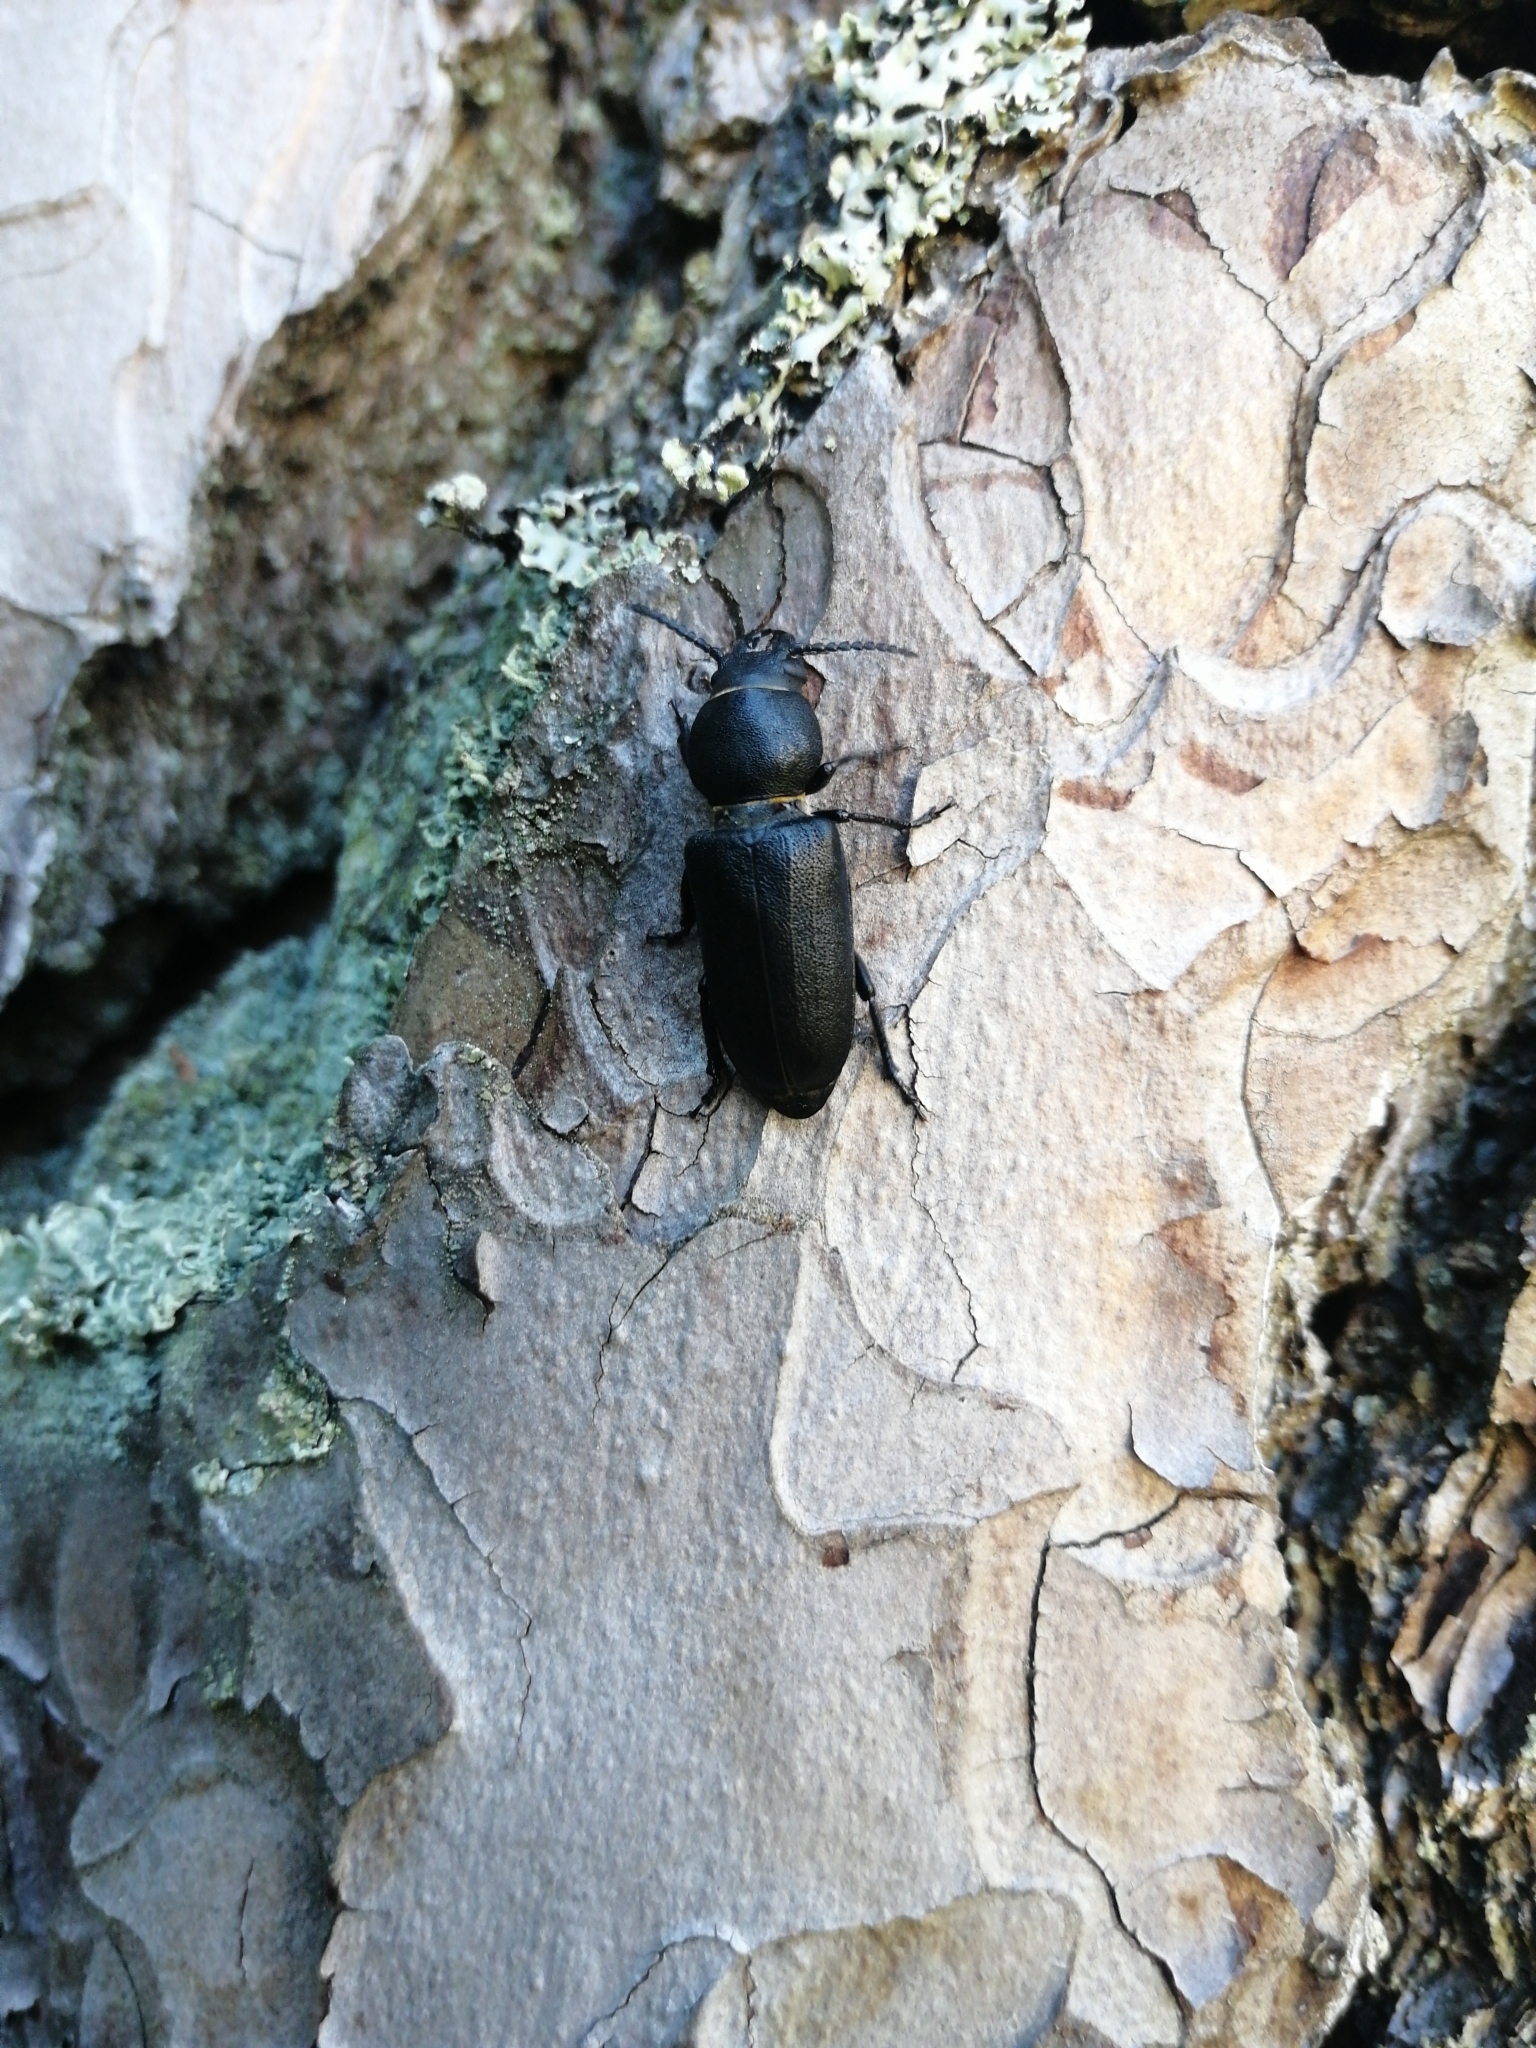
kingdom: Animalia
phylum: Arthropoda
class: Insecta
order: Coleoptera
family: Cerambycidae
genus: Spondylis
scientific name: Spondylis buprestoides
